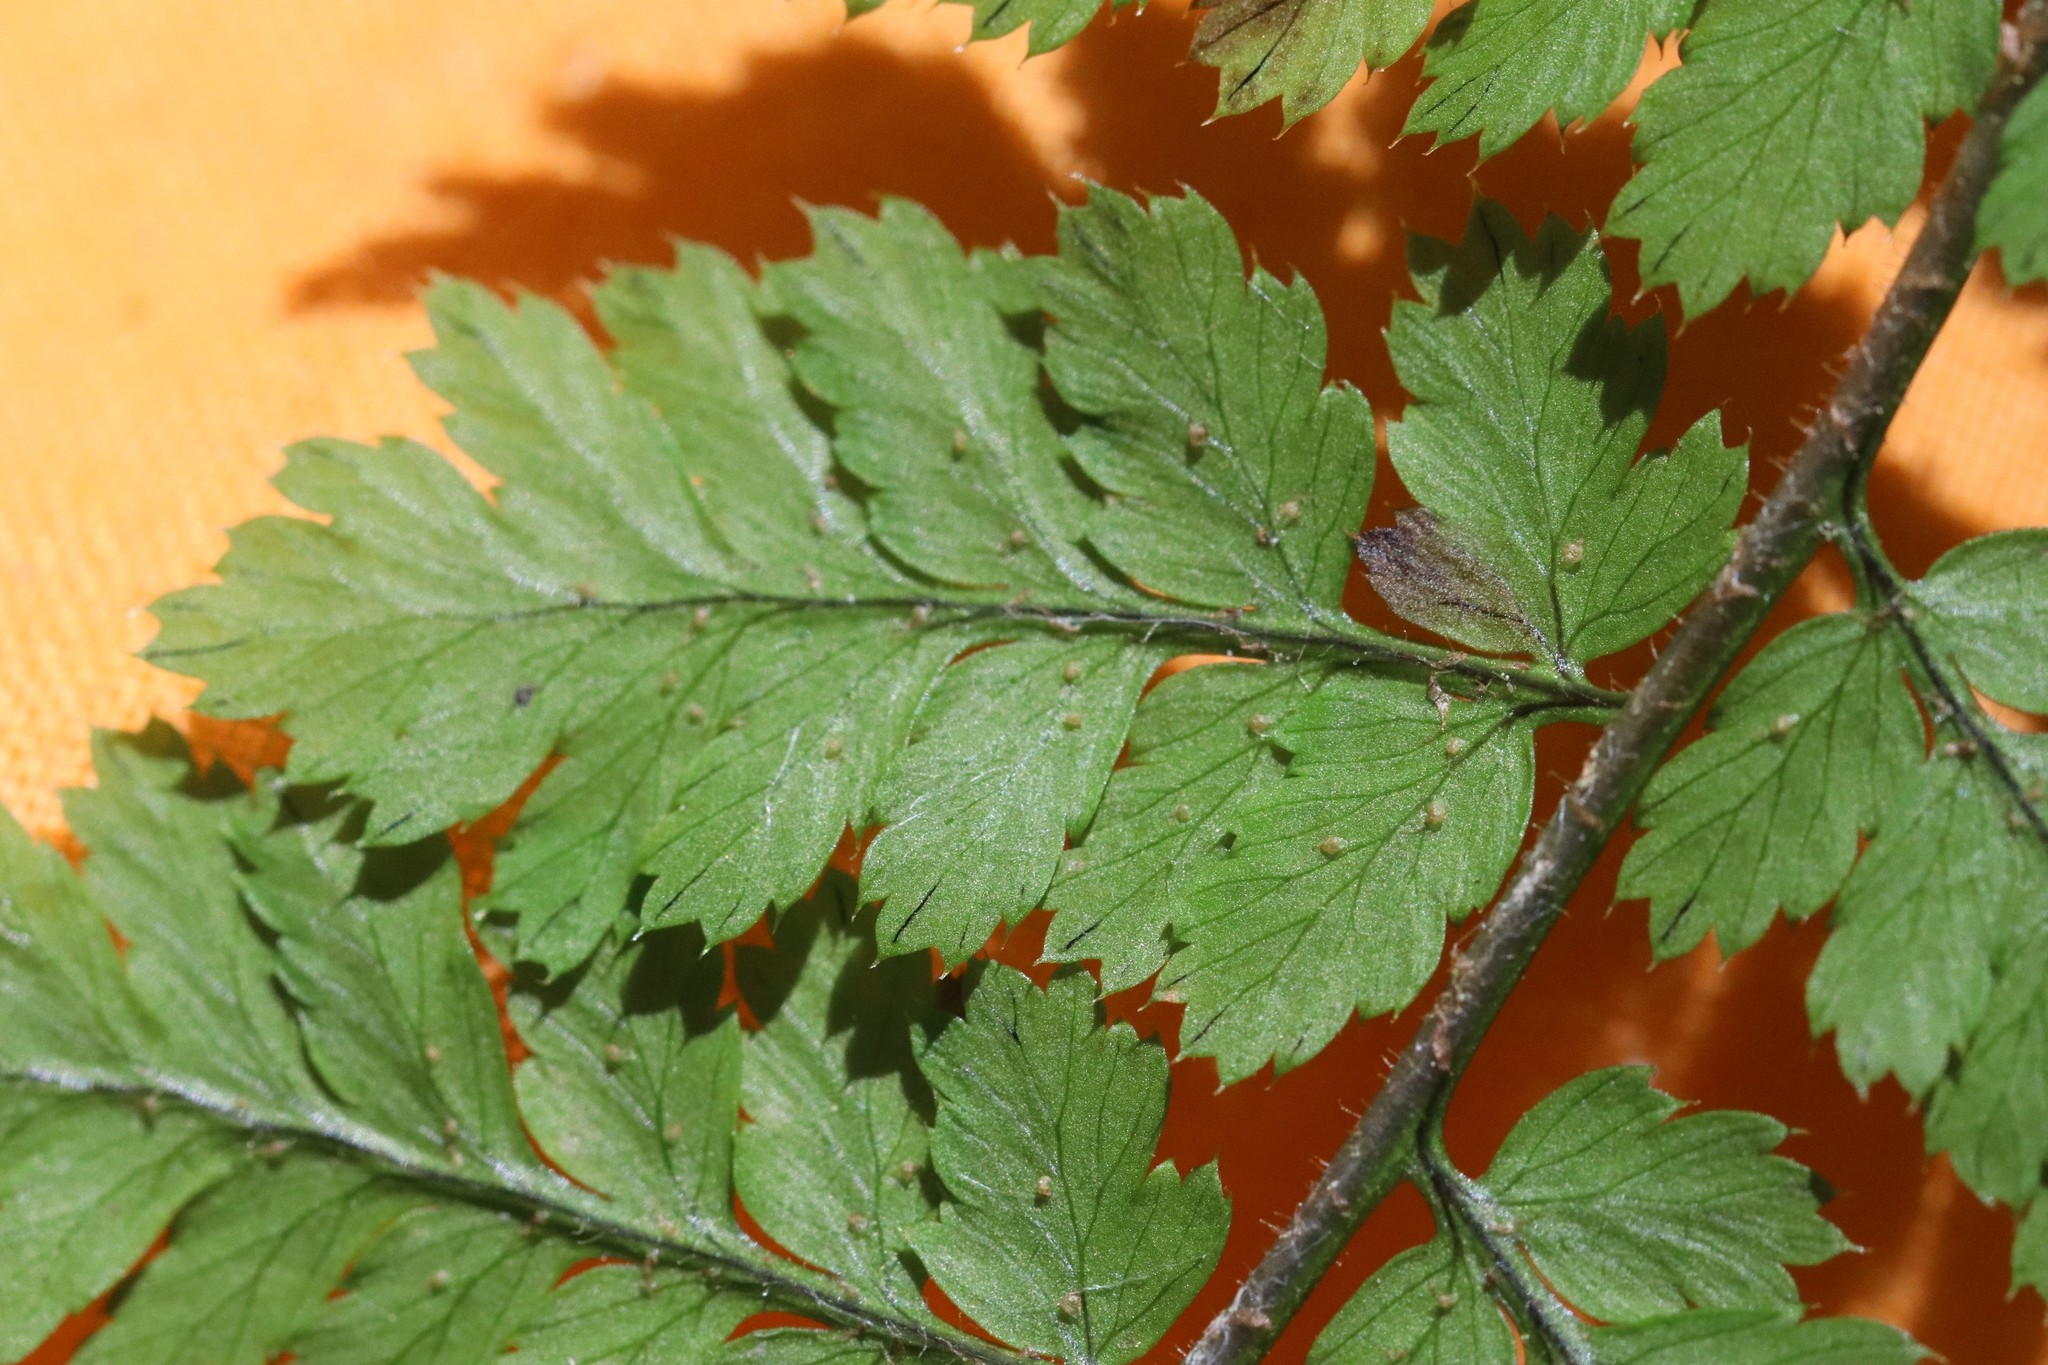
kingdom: Plantae
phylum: Tracheophyta
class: Polypodiopsida
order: Polypodiales
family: Dryopteridaceae
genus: Dryopteris
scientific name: Dryopteris amurensis
